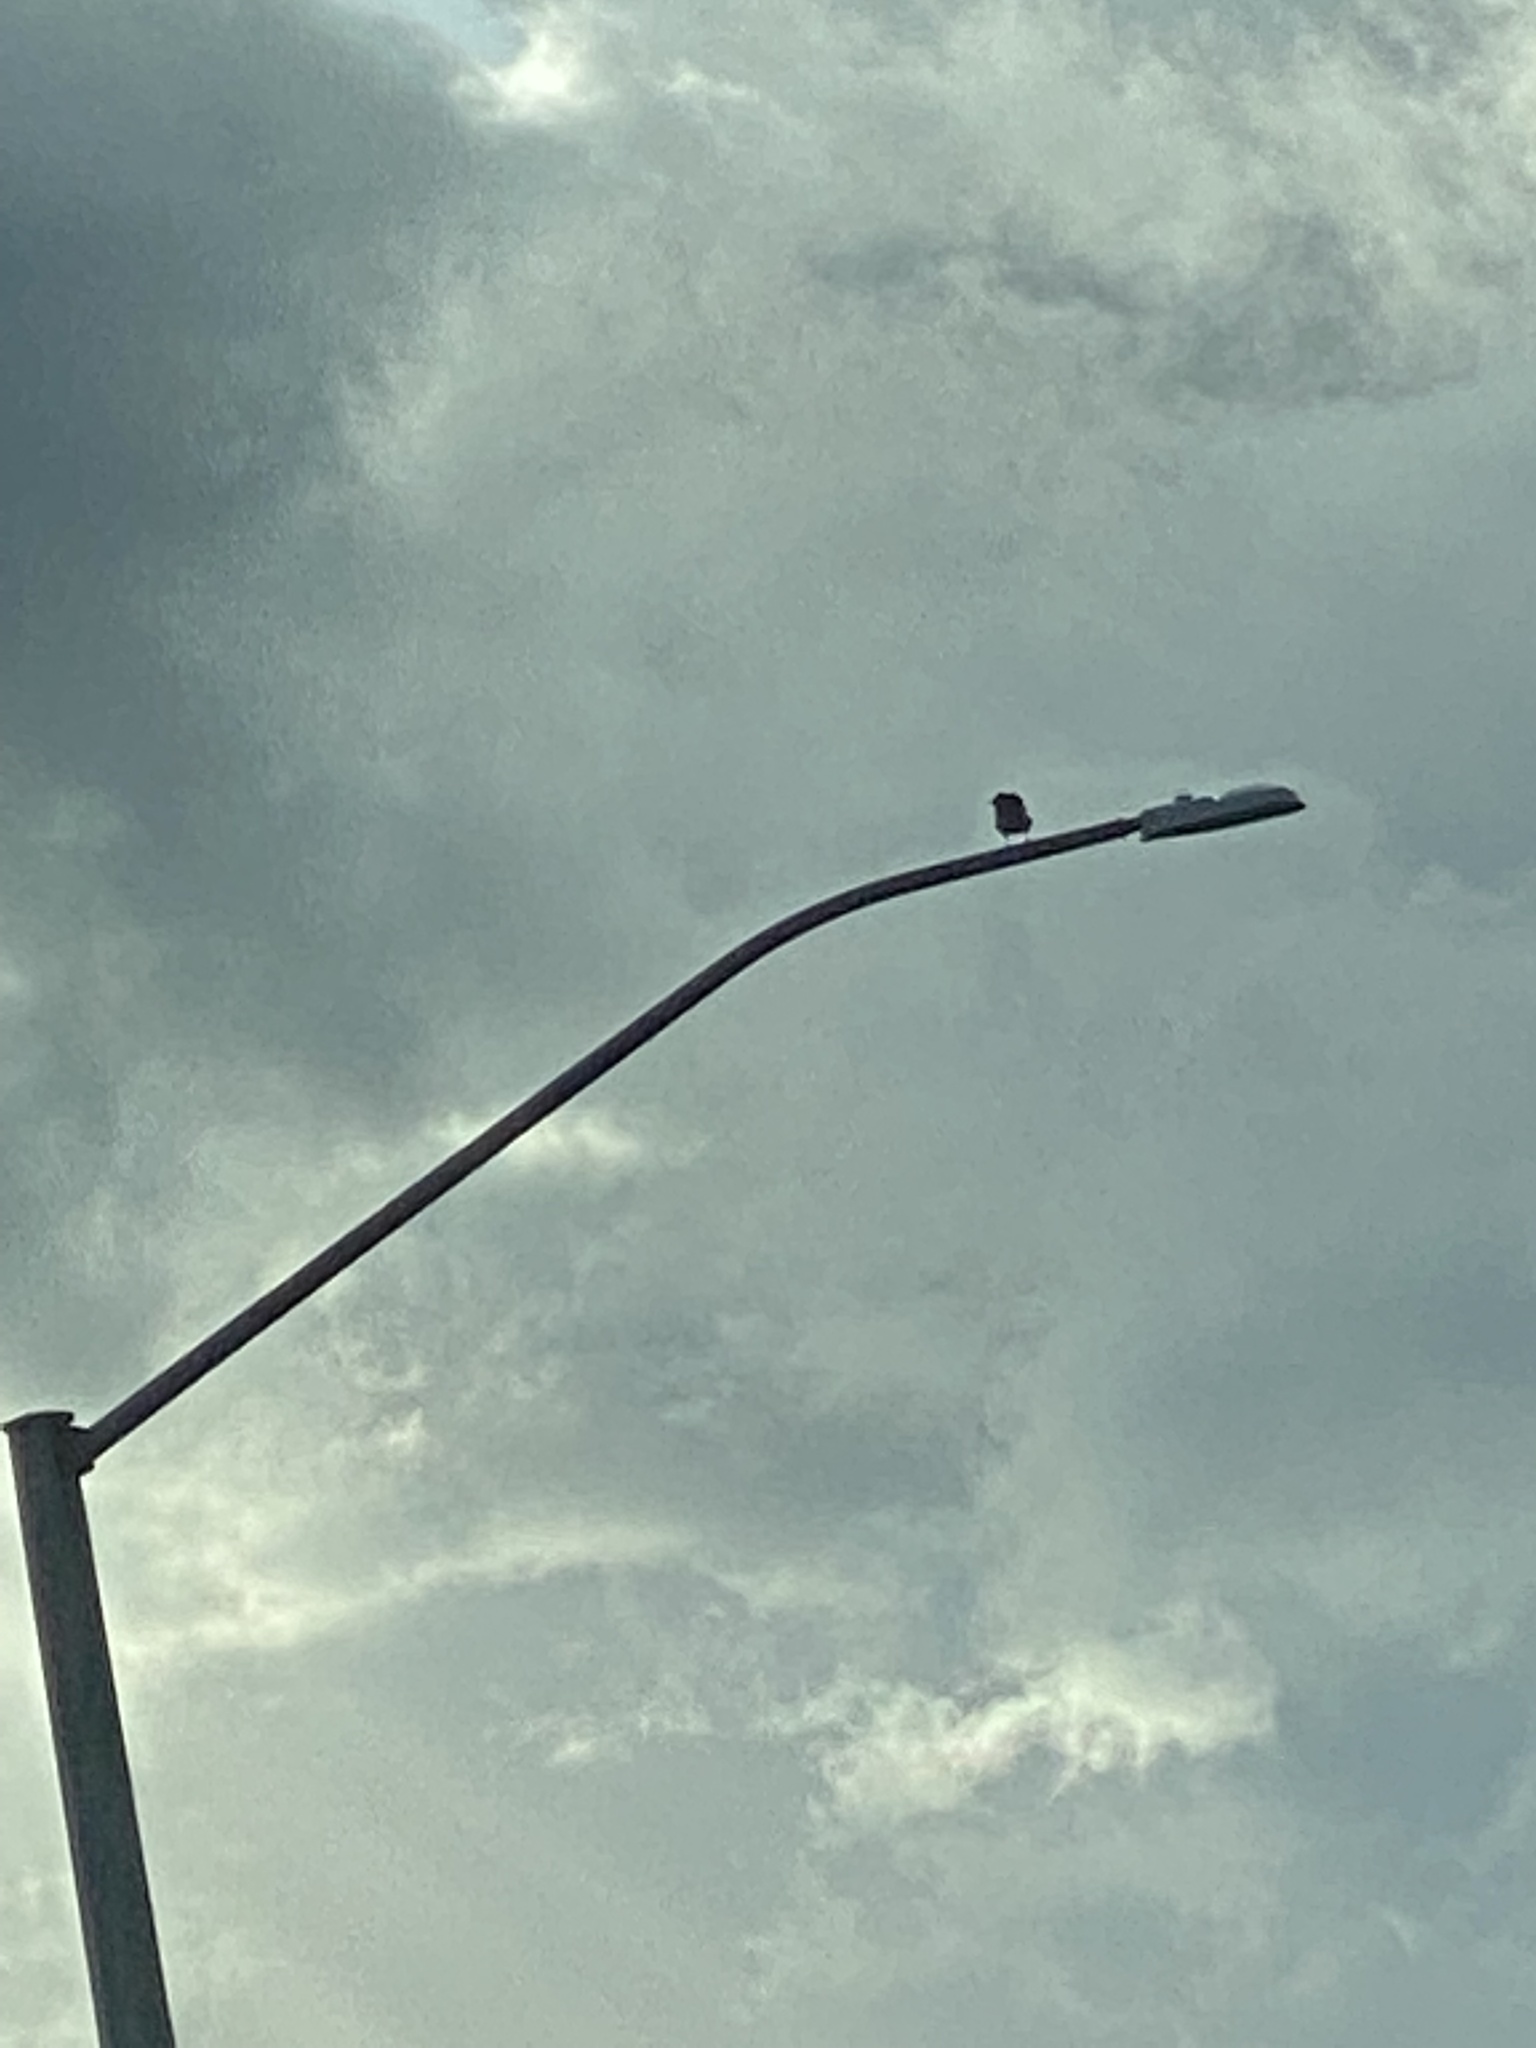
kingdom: Animalia
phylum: Chordata
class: Aves
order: Passeriformes
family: Corvidae
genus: Corvus
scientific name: Corvus brachyrhynchos
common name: American crow
